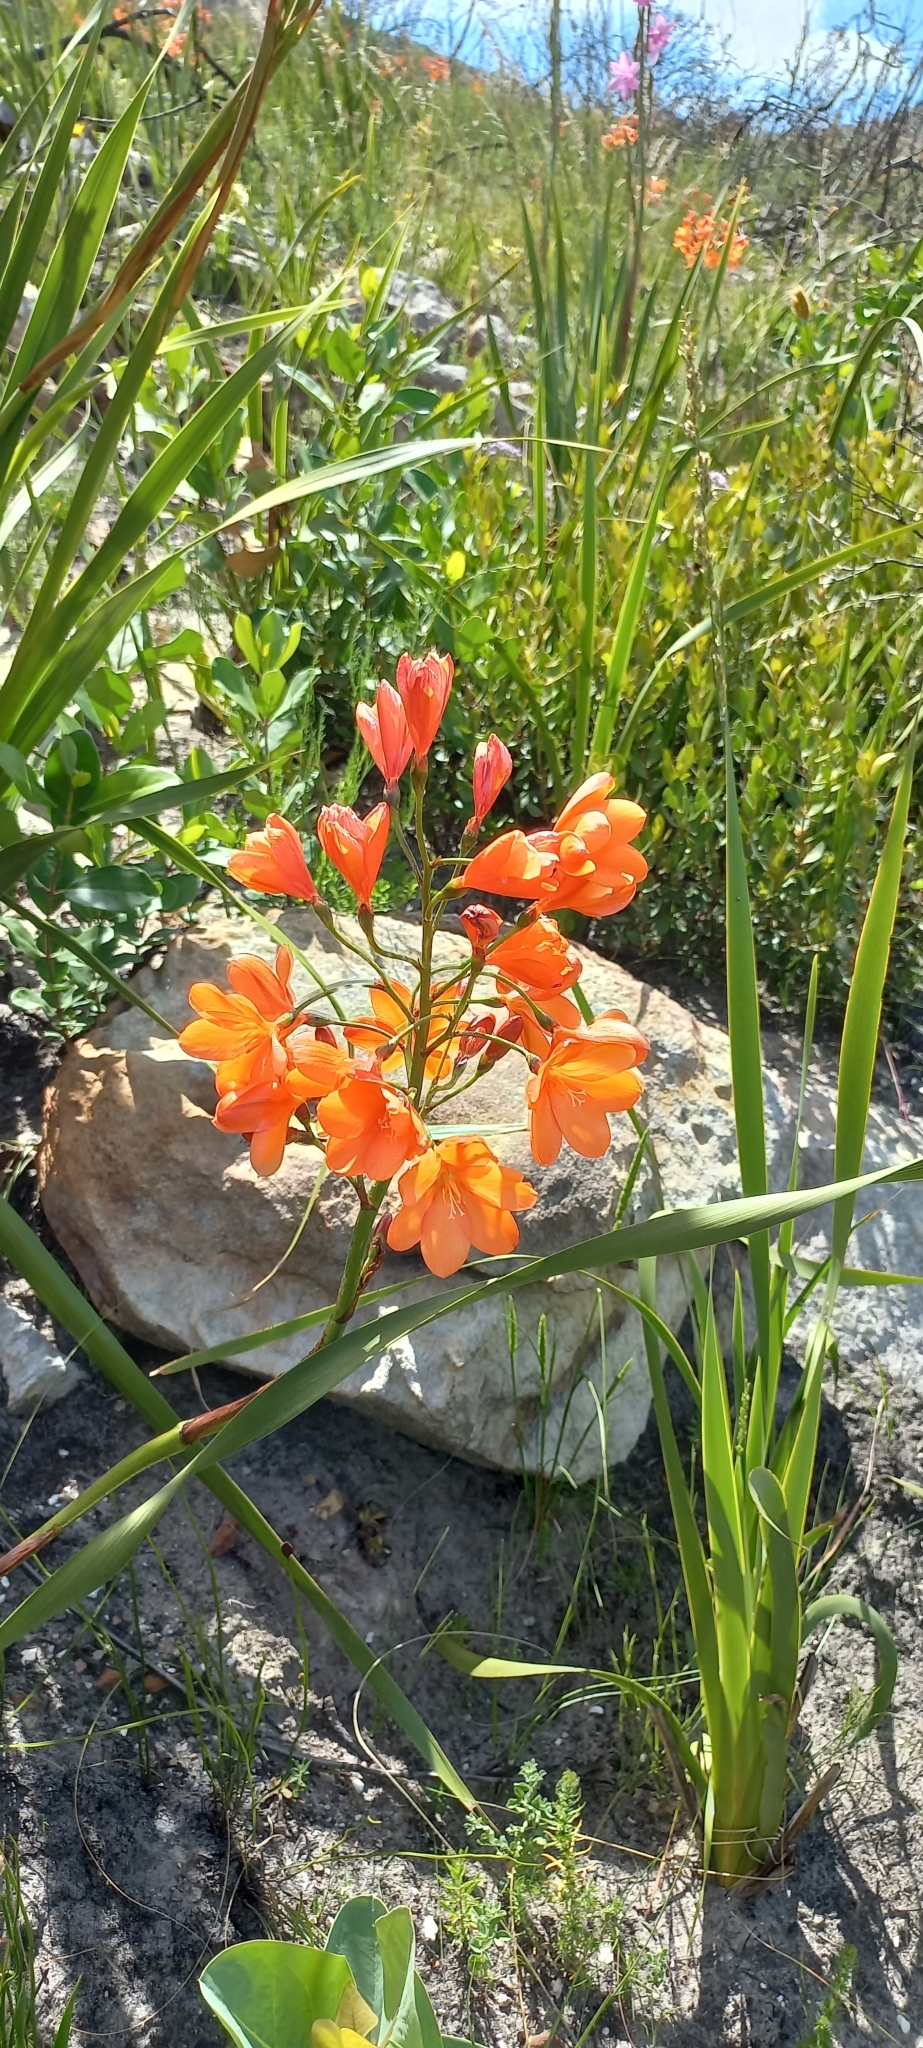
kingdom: Plantae
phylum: Tracheophyta
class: Liliopsida
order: Asparagales
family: Iridaceae
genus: Pillansia
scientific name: Pillansia templemannii
